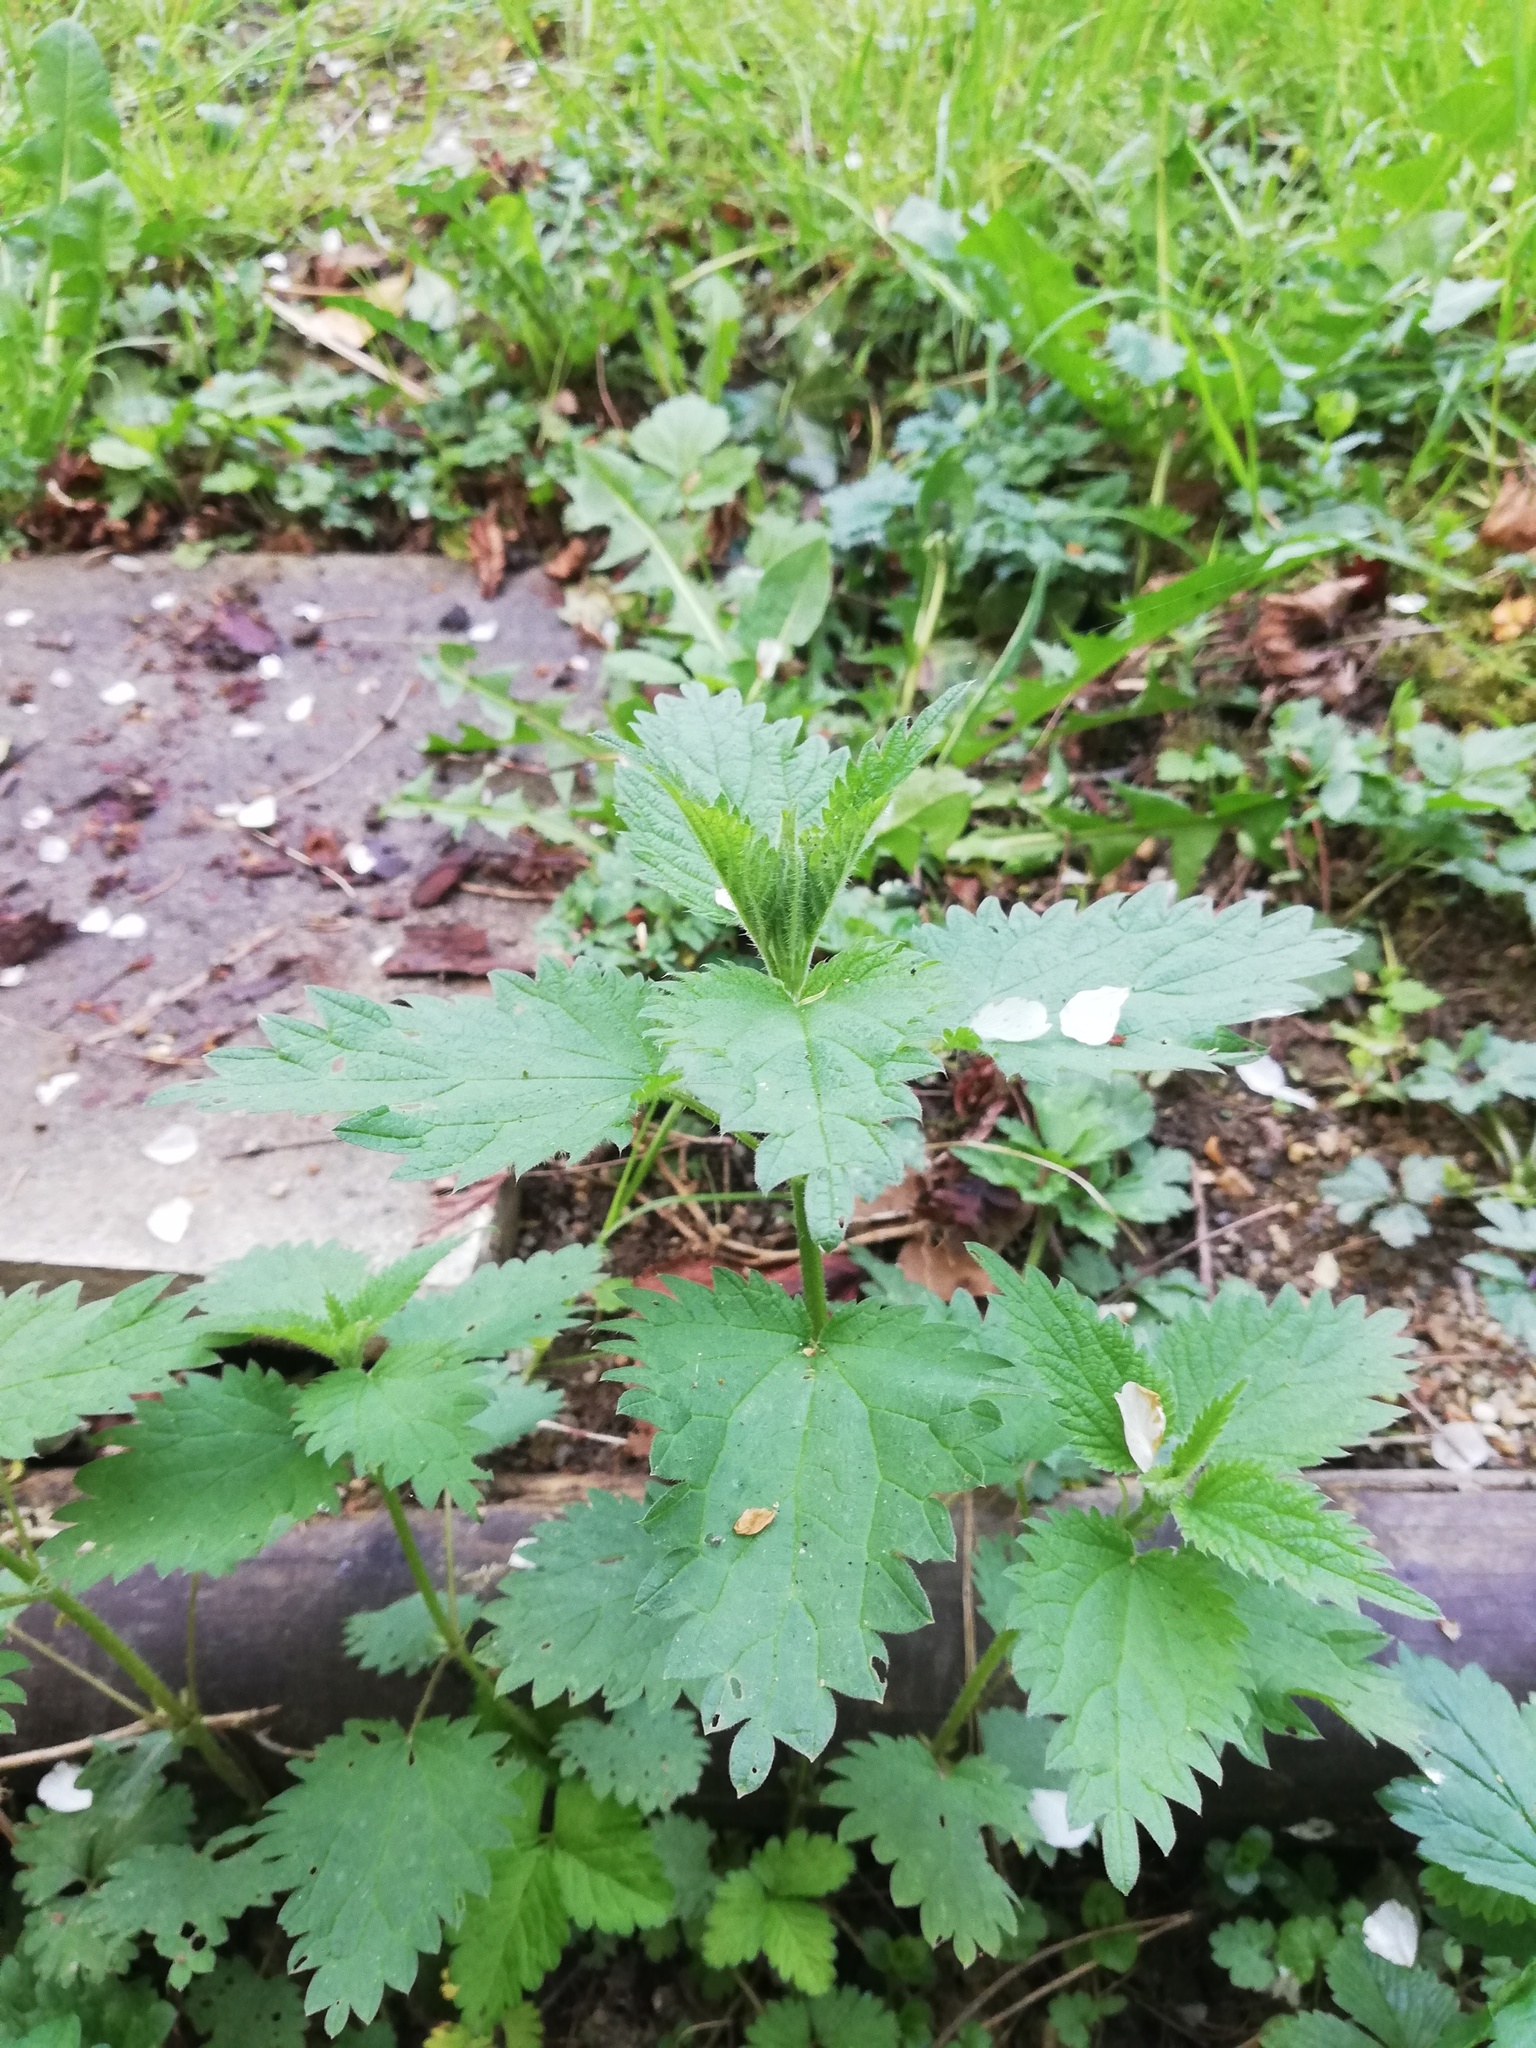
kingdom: Plantae
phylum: Tracheophyta
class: Magnoliopsida
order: Rosales
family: Urticaceae
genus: Urtica
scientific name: Urtica dioica
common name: Common nettle
